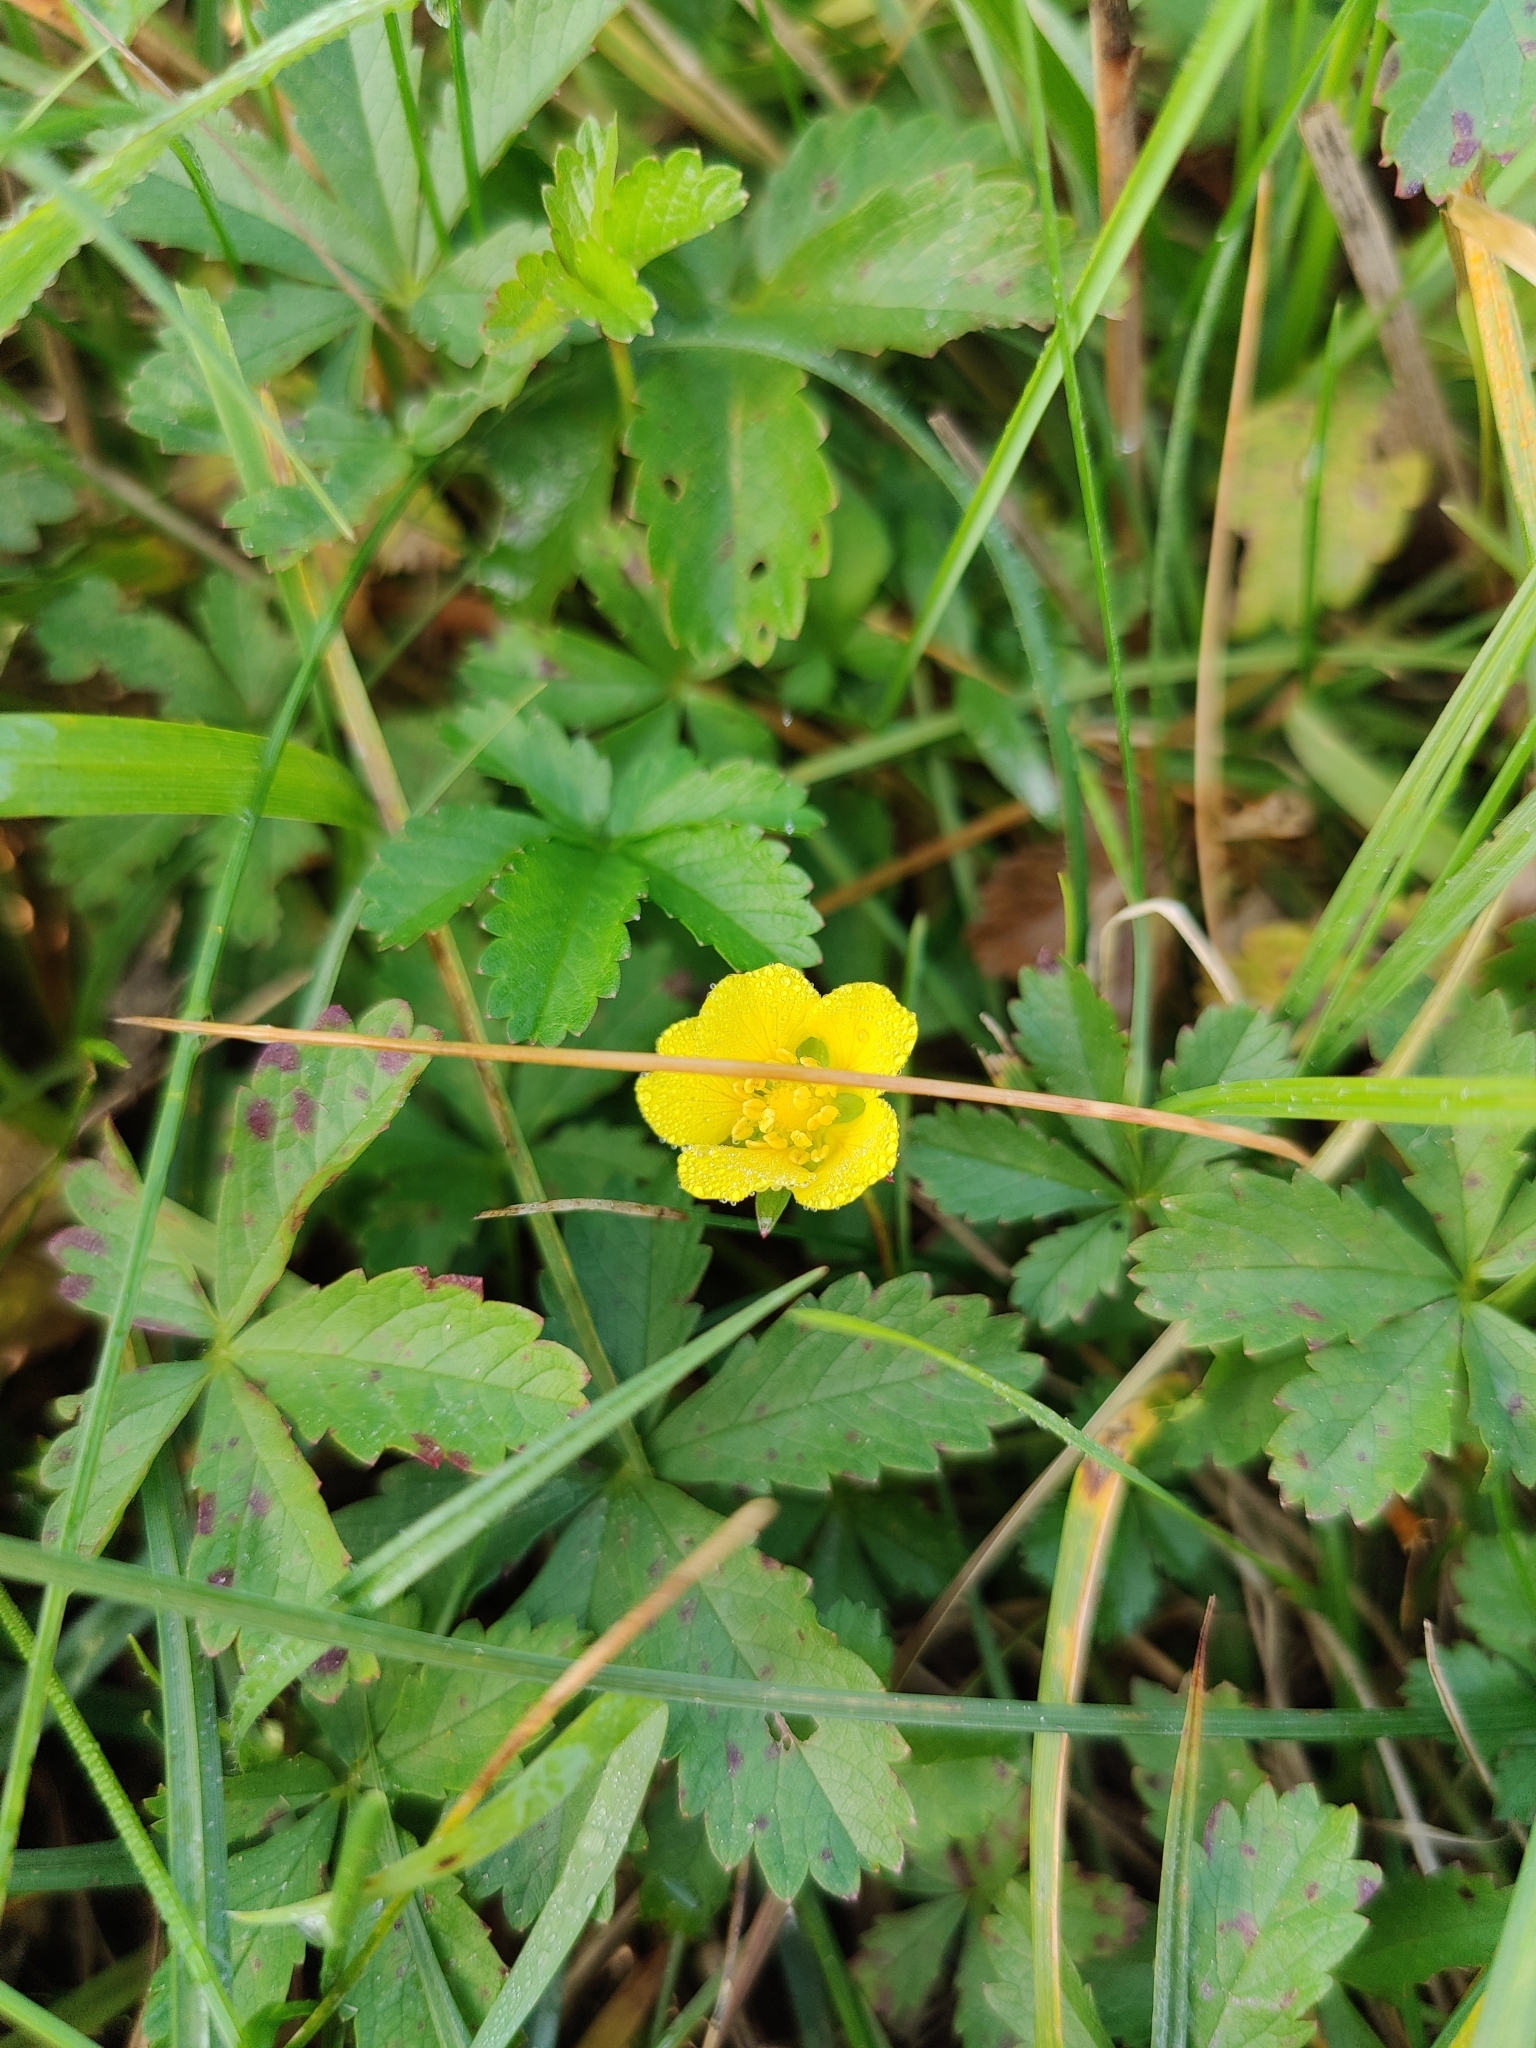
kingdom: Plantae
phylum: Tracheophyta
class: Magnoliopsida
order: Rosales
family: Rosaceae
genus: Potentilla
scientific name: Potentilla reptans
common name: Creeping cinquefoil
